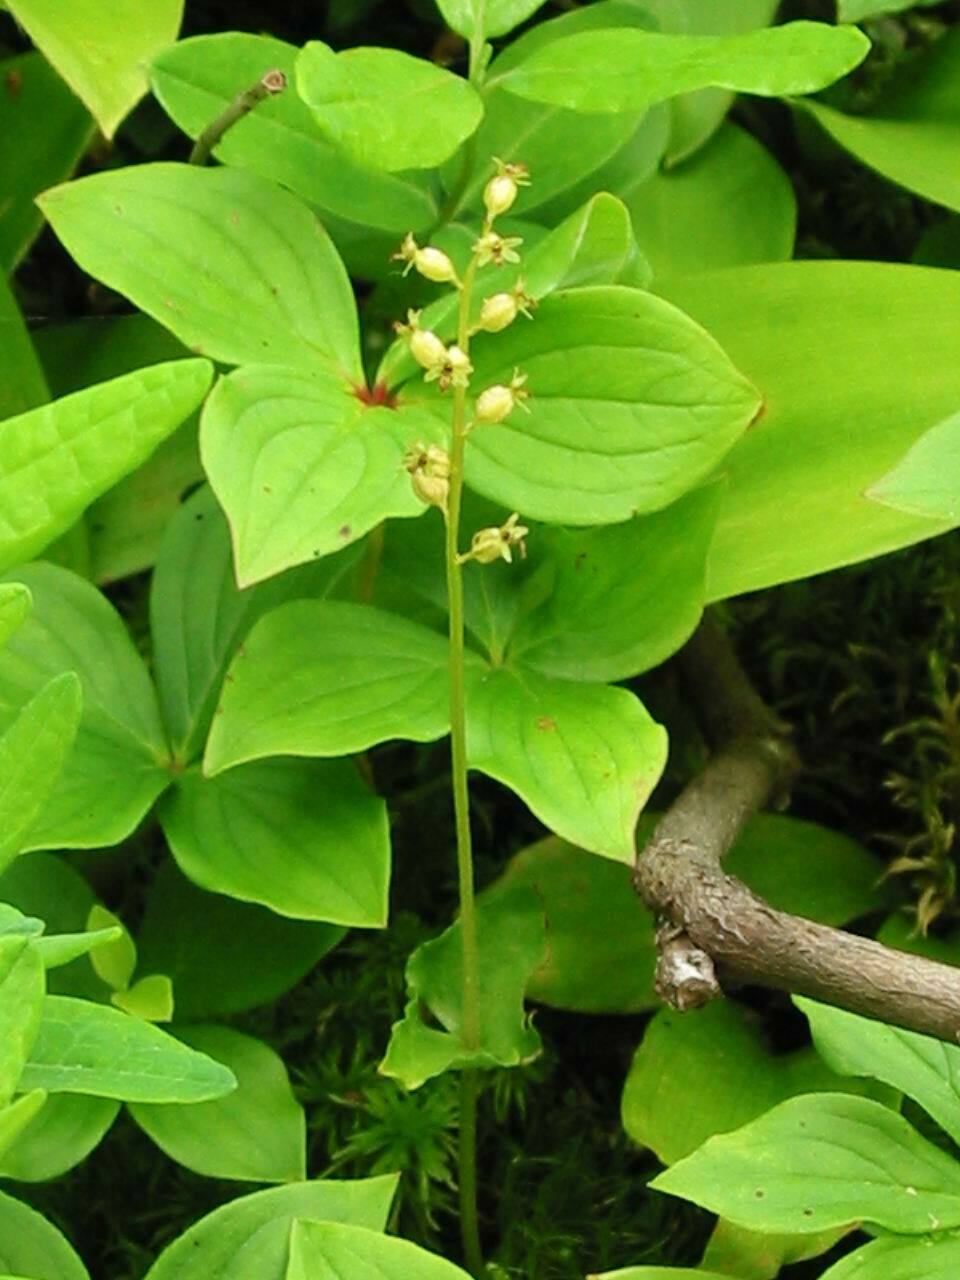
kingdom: Plantae
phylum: Tracheophyta
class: Liliopsida
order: Asparagales
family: Orchidaceae
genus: Neottia
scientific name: Neottia cordata
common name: Lesser twayblade
